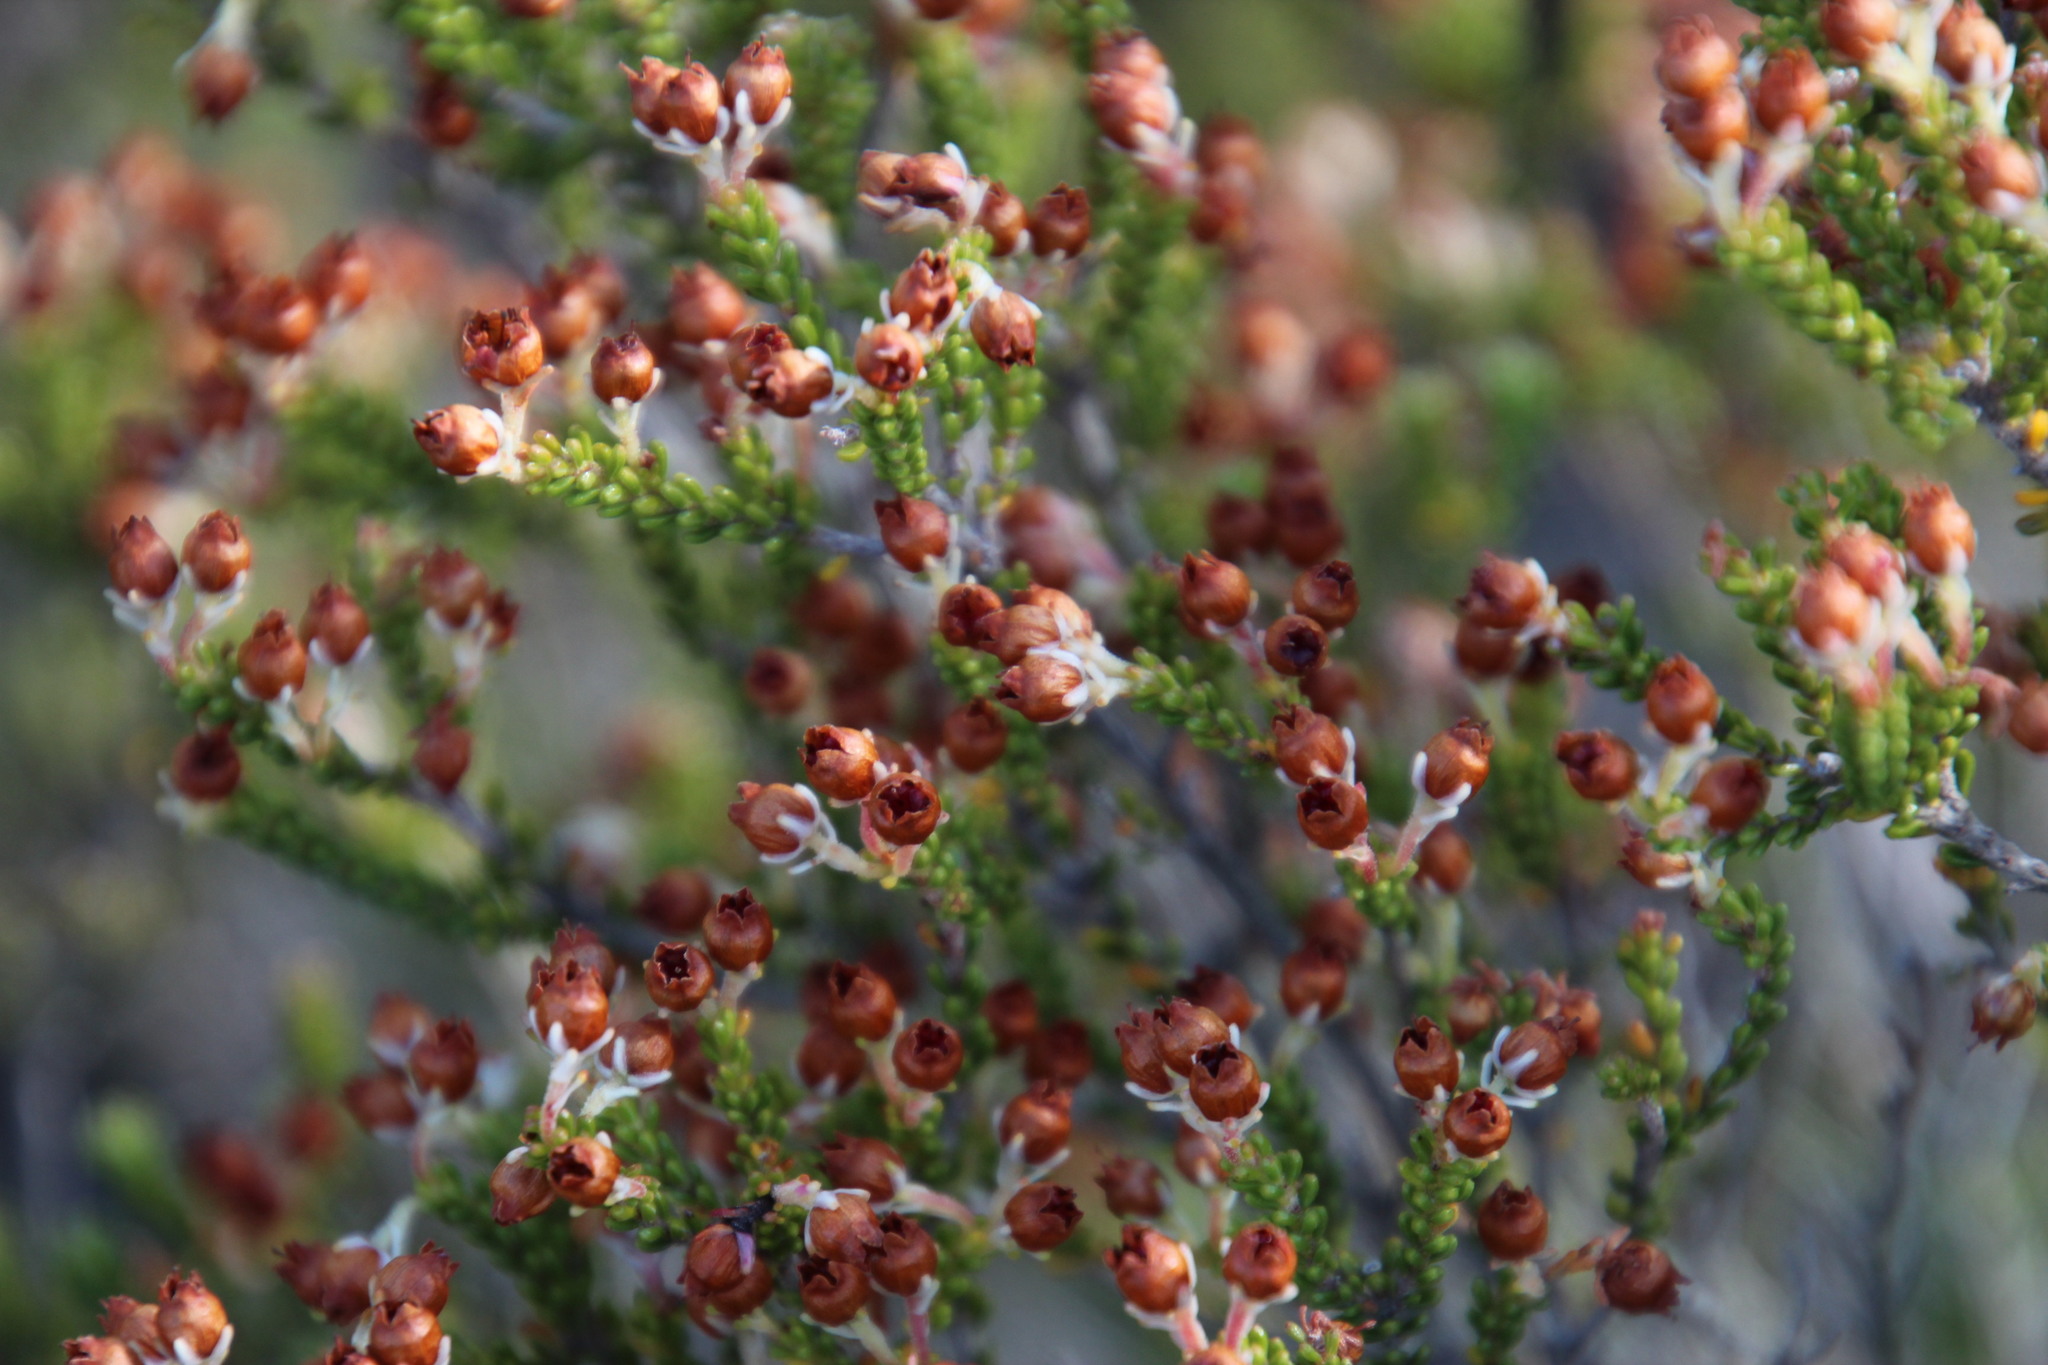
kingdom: Plantae
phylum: Tracheophyta
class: Magnoliopsida
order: Ericales
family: Ericaceae
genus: Erica
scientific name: Erica spectabilis
